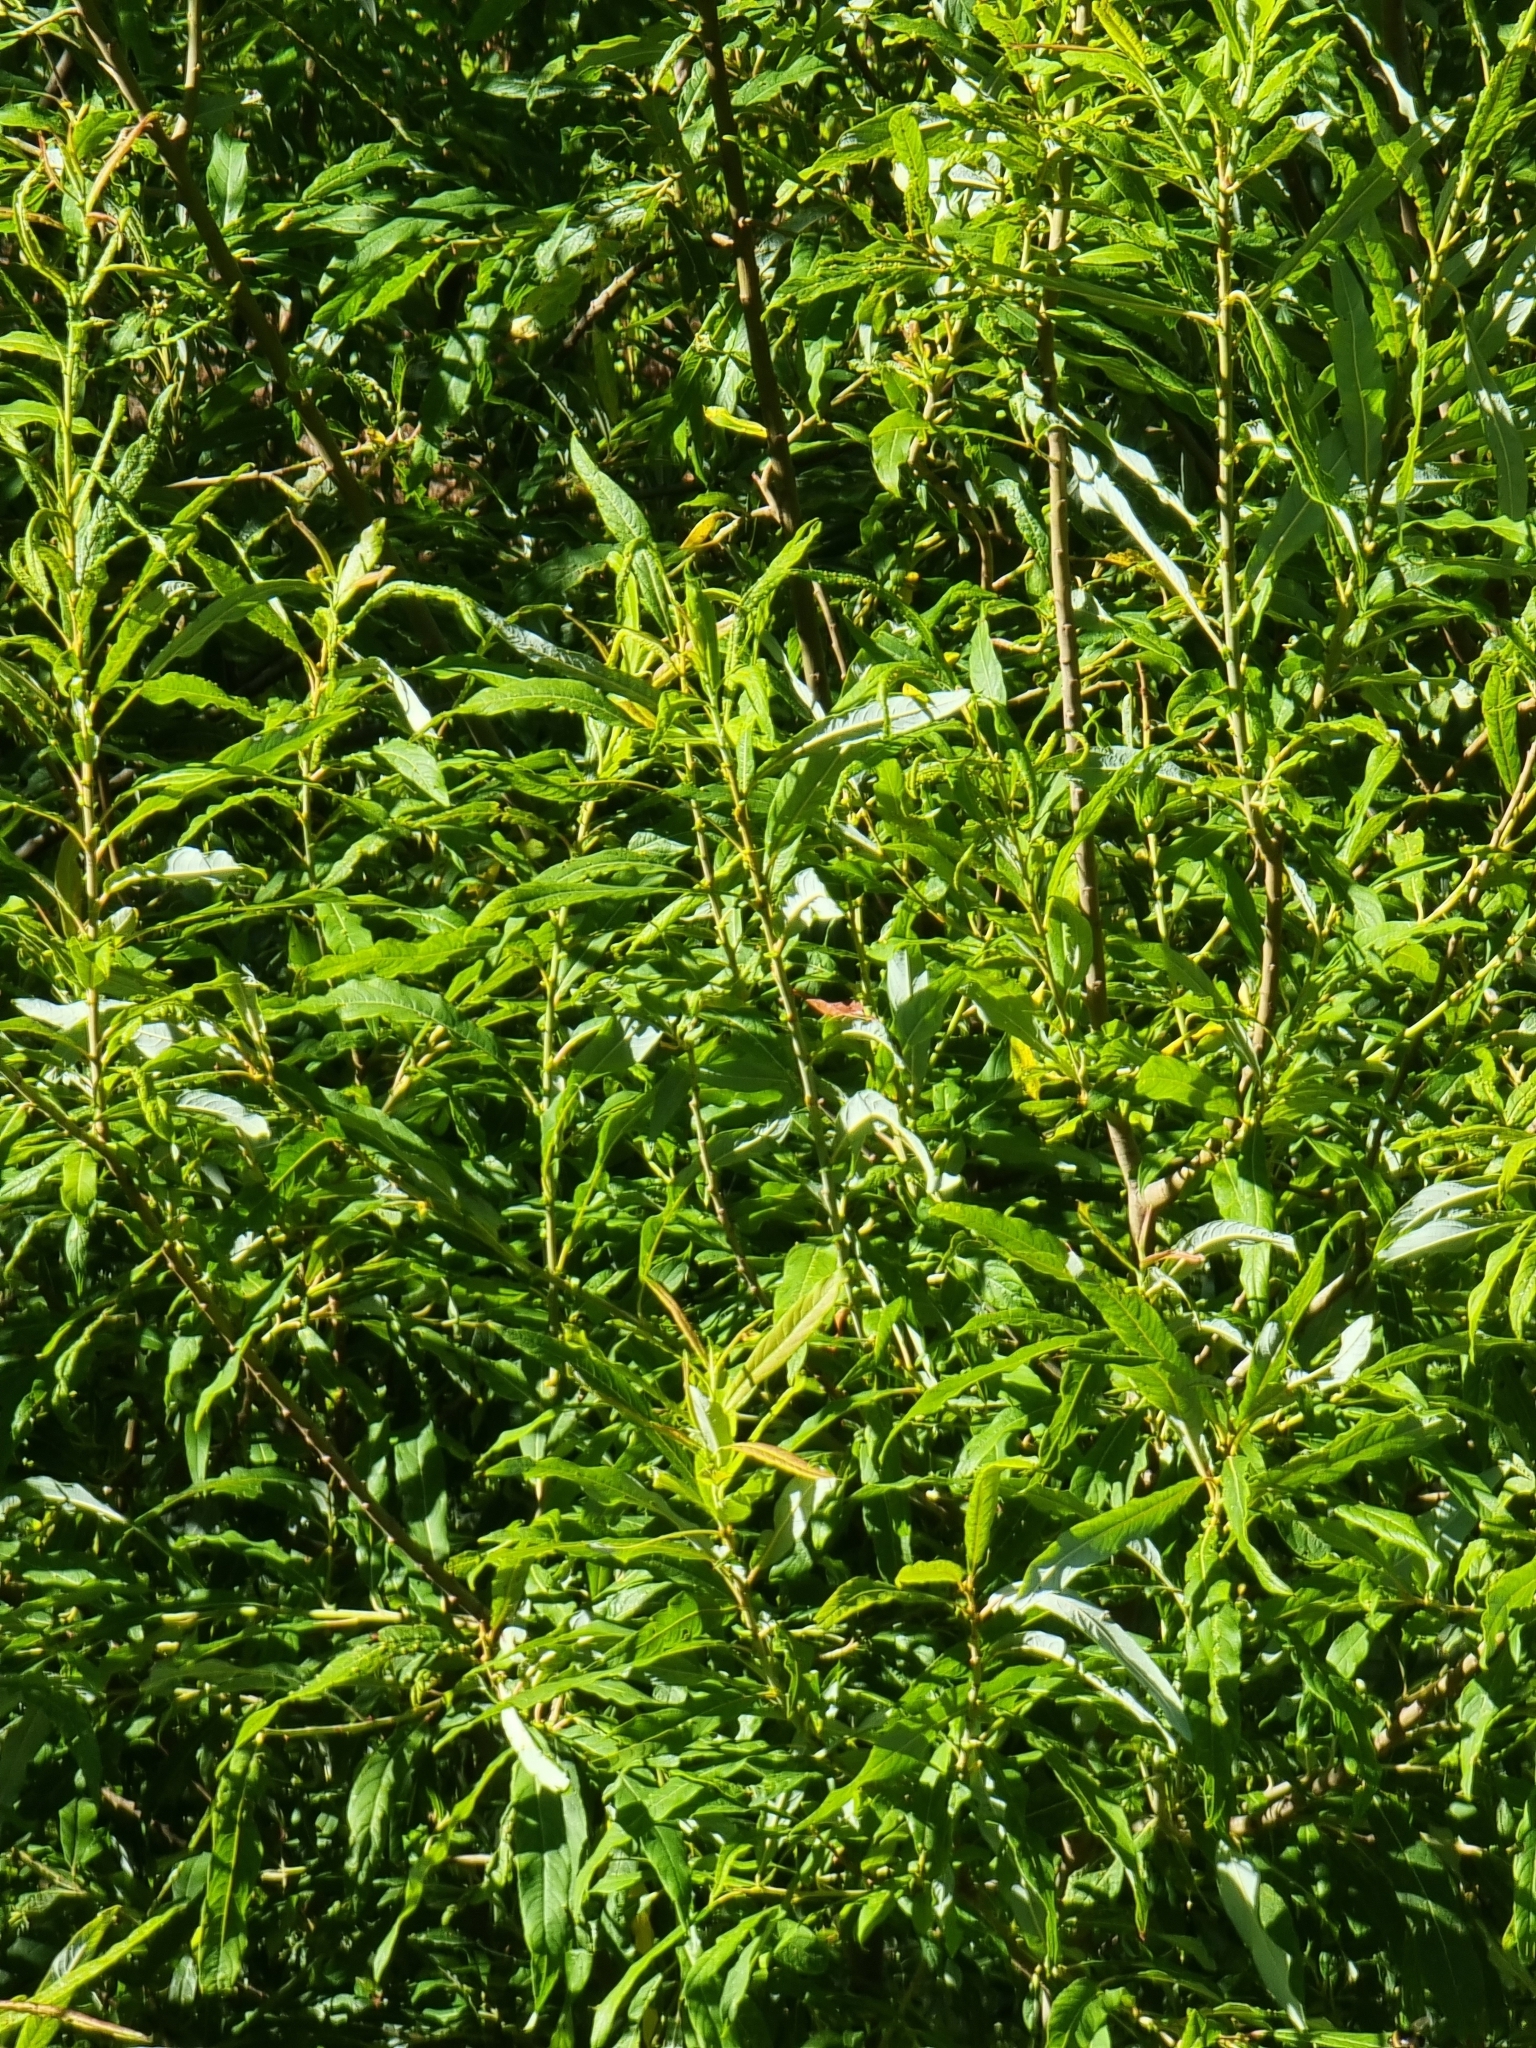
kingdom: Plantae
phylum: Tracheophyta
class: Magnoliopsida
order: Malpighiales
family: Salicaceae
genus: Salix
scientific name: Salix canariensis
